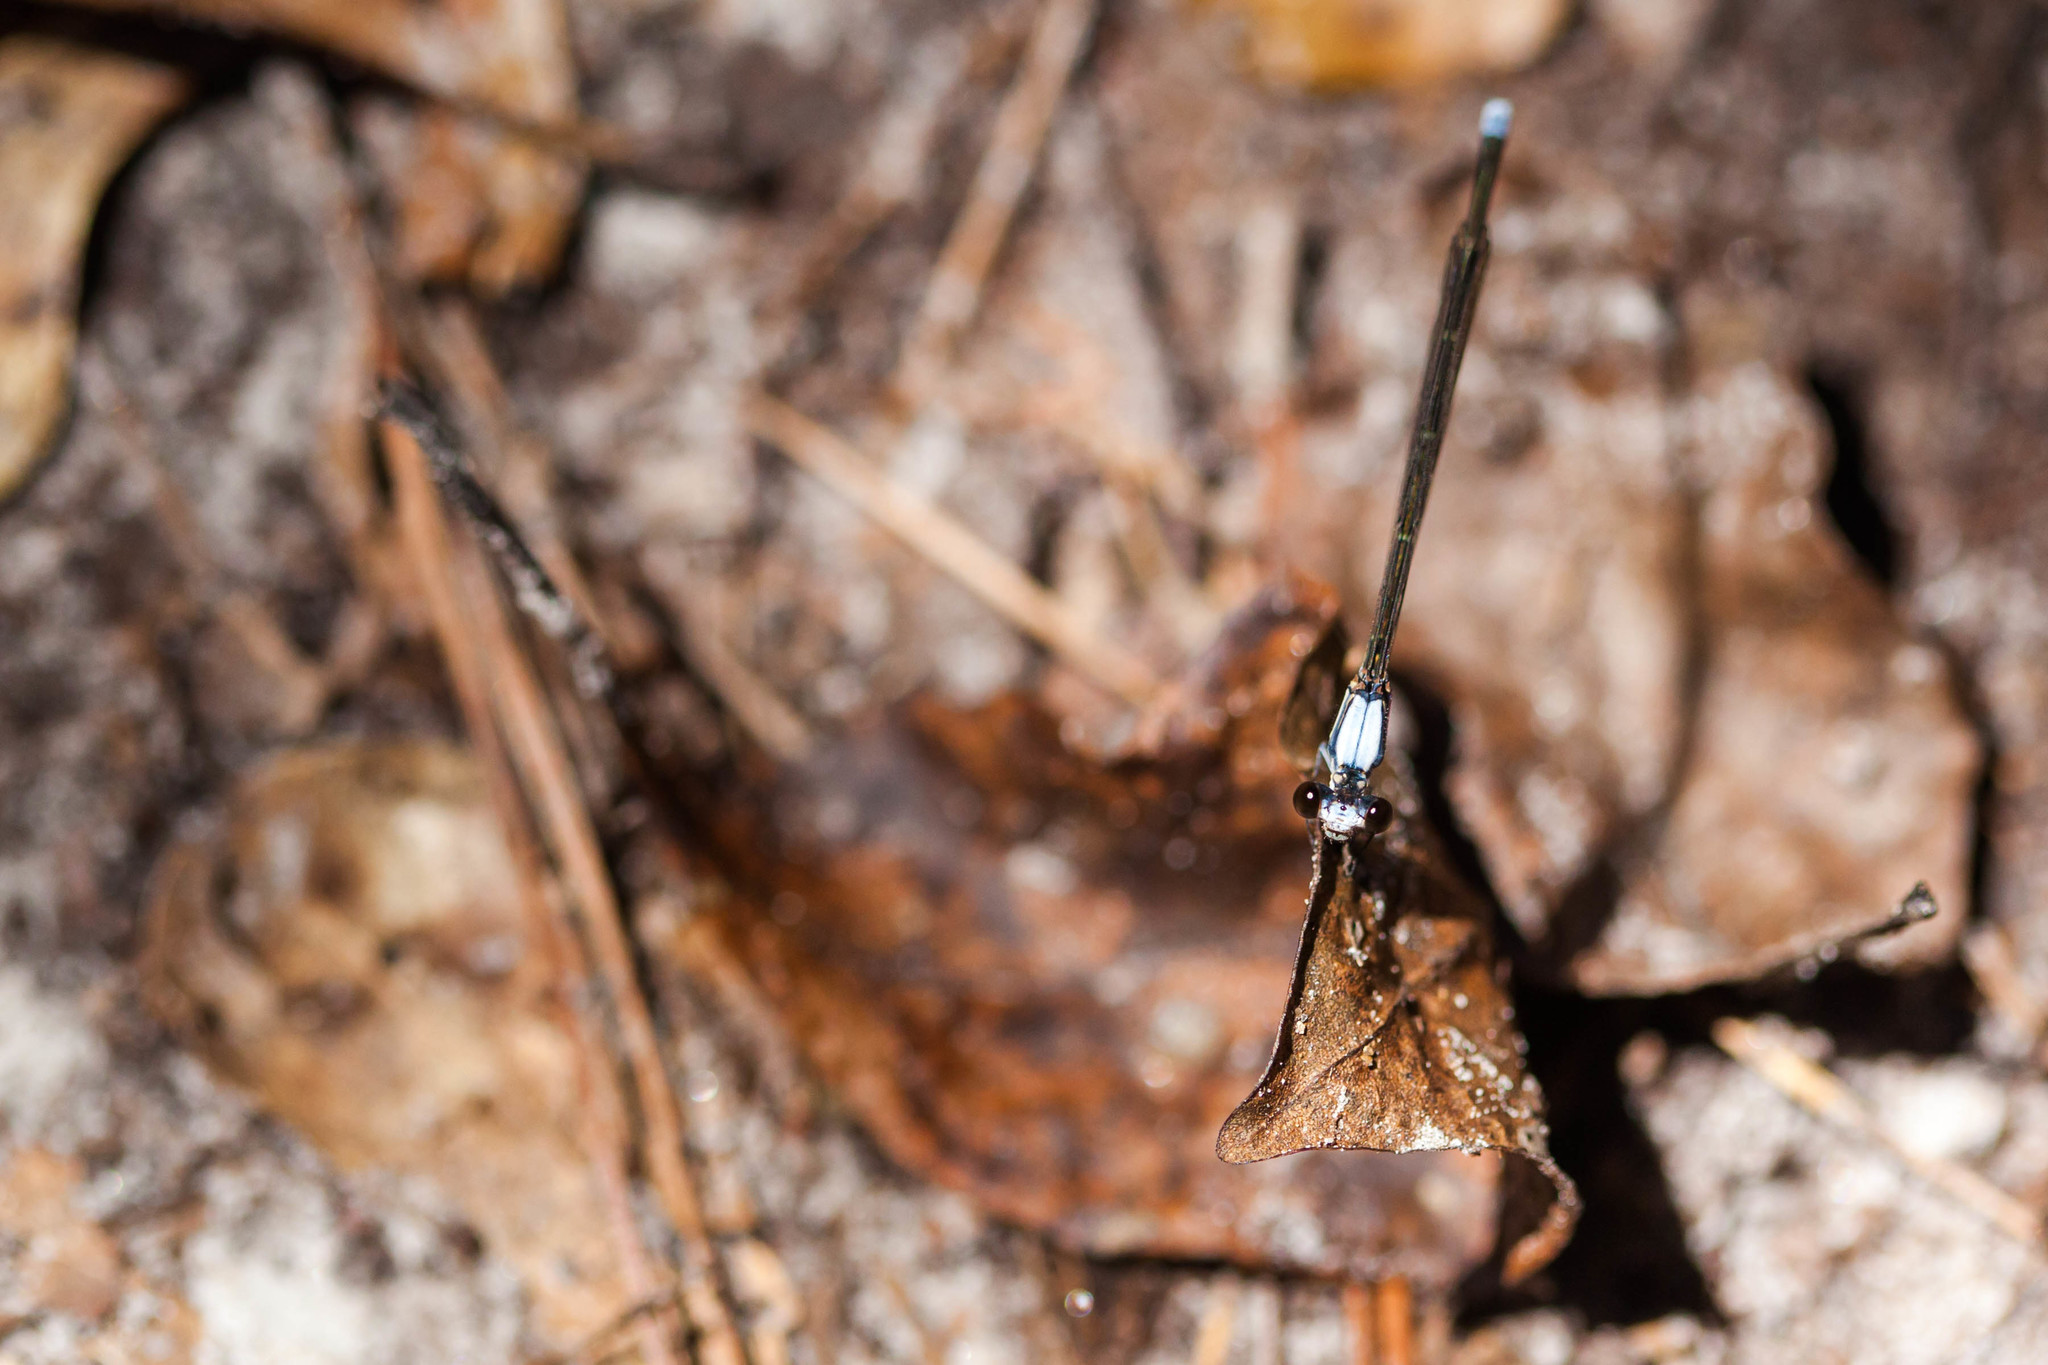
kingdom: Animalia
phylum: Arthropoda
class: Insecta
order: Odonata
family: Coenagrionidae
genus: Argia
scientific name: Argia moesta
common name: Powdered dancer
